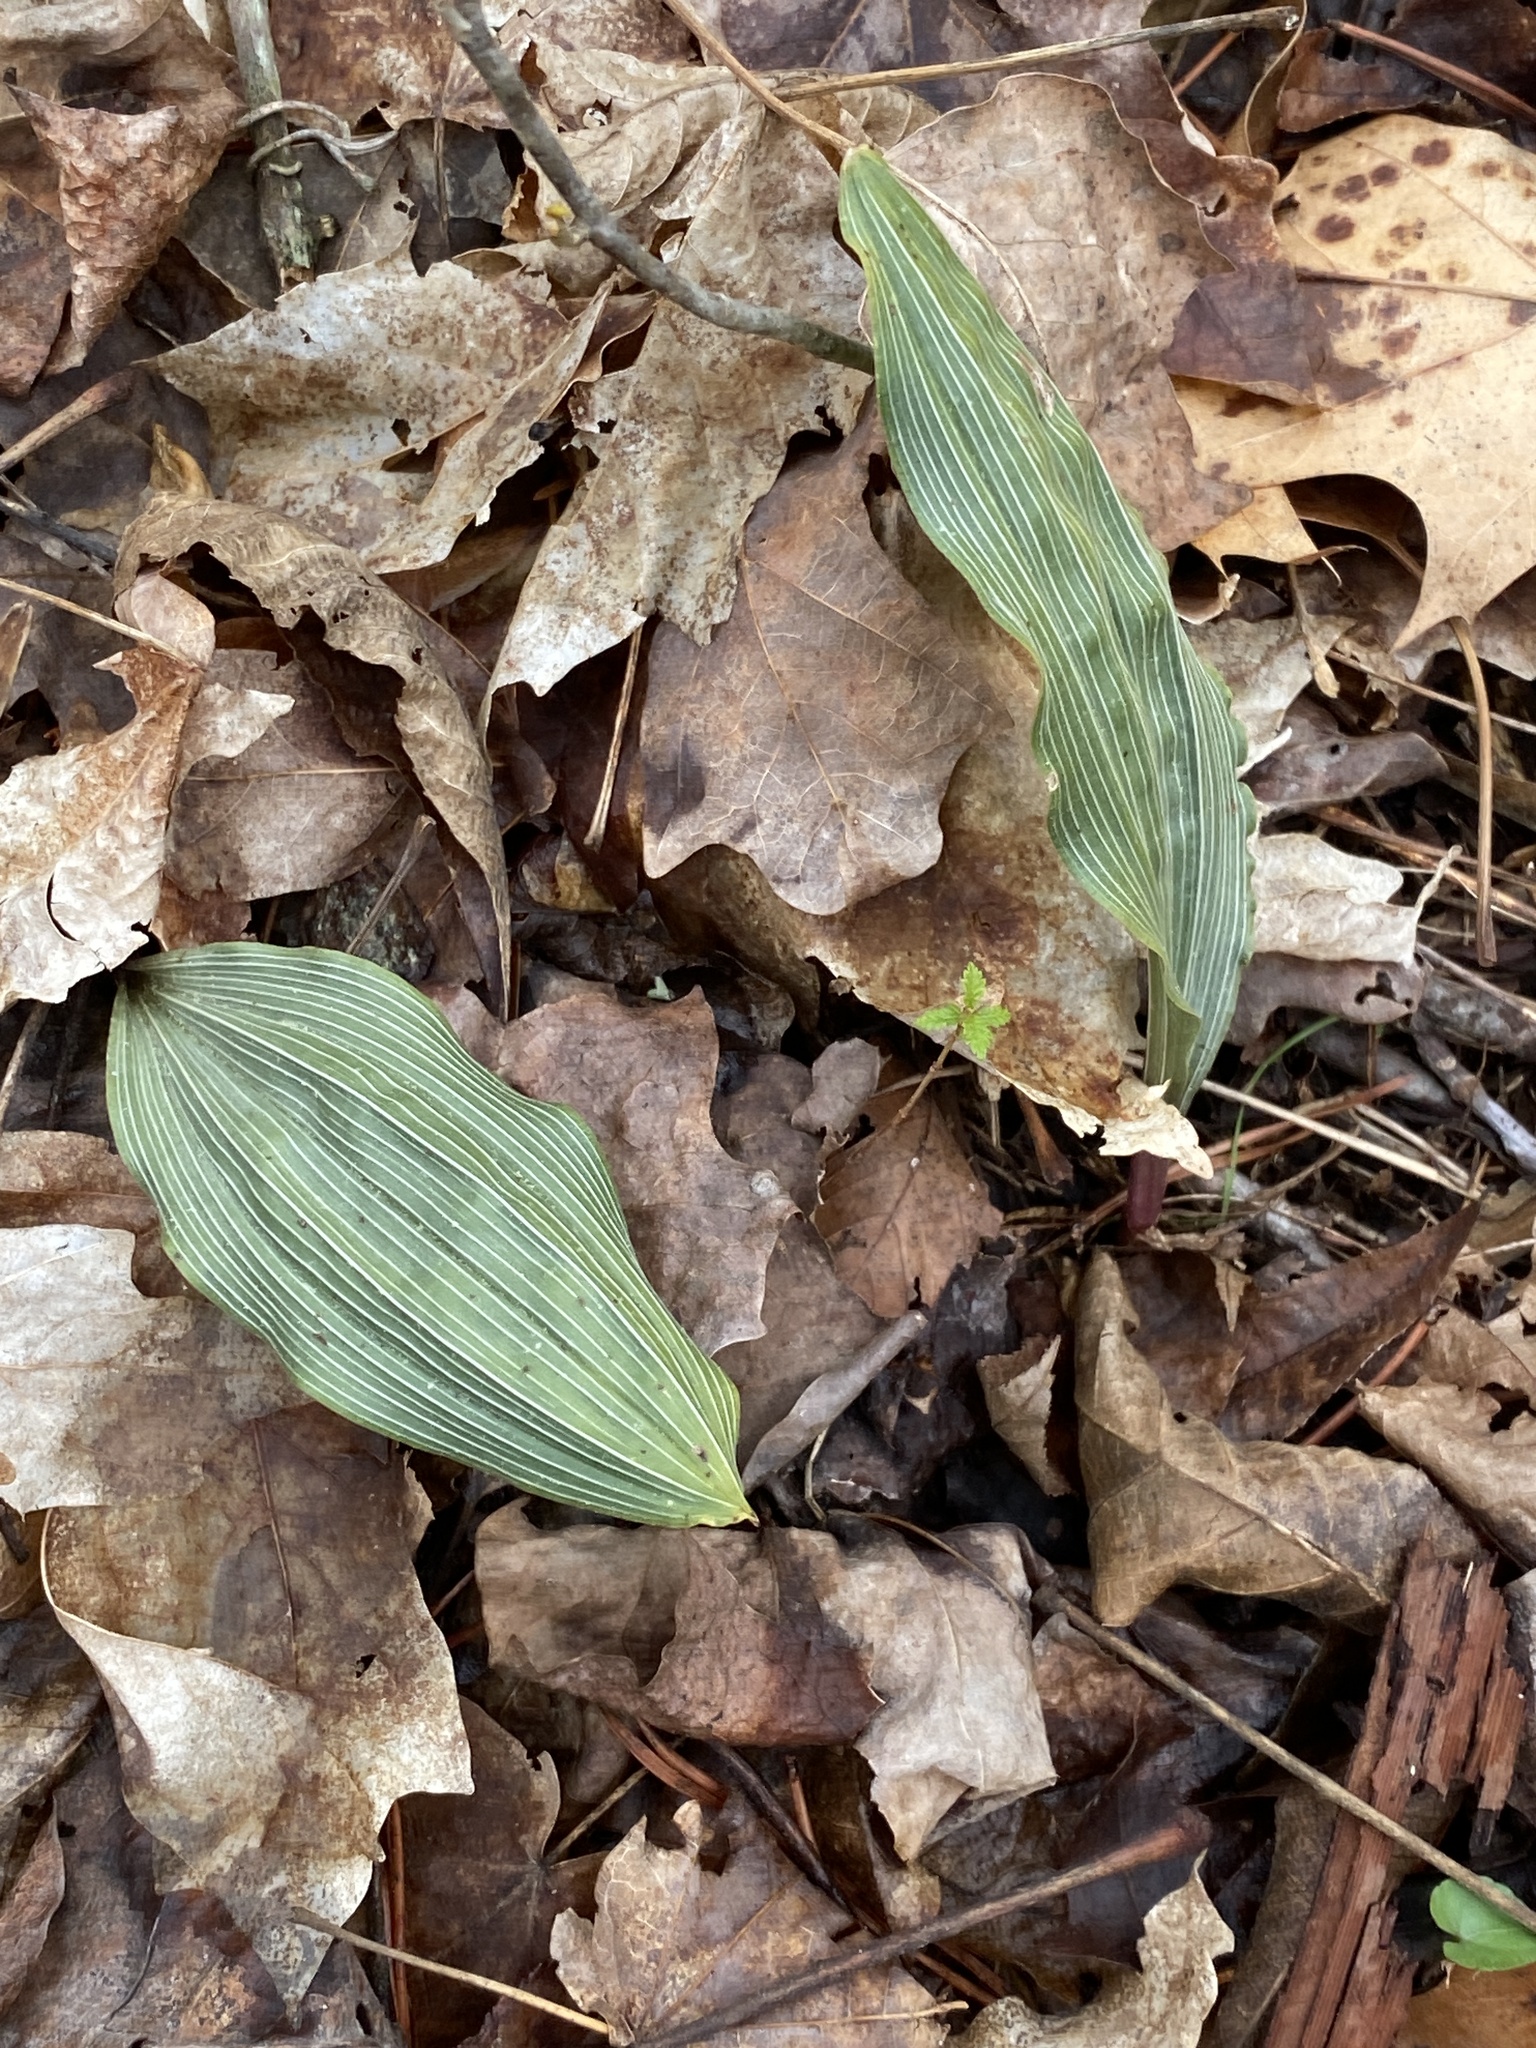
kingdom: Plantae
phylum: Tracheophyta
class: Liliopsida
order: Asparagales
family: Orchidaceae
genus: Aplectrum
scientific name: Aplectrum hyemale
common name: Adam-and-eve
